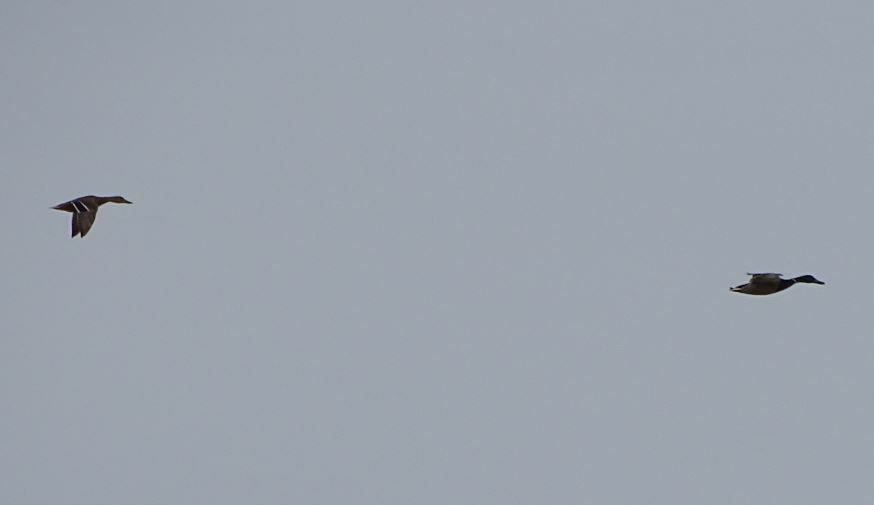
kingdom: Animalia
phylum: Chordata
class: Aves
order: Anseriformes
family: Anatidae
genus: Anas
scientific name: Anas platyrhynchos
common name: Mallard
